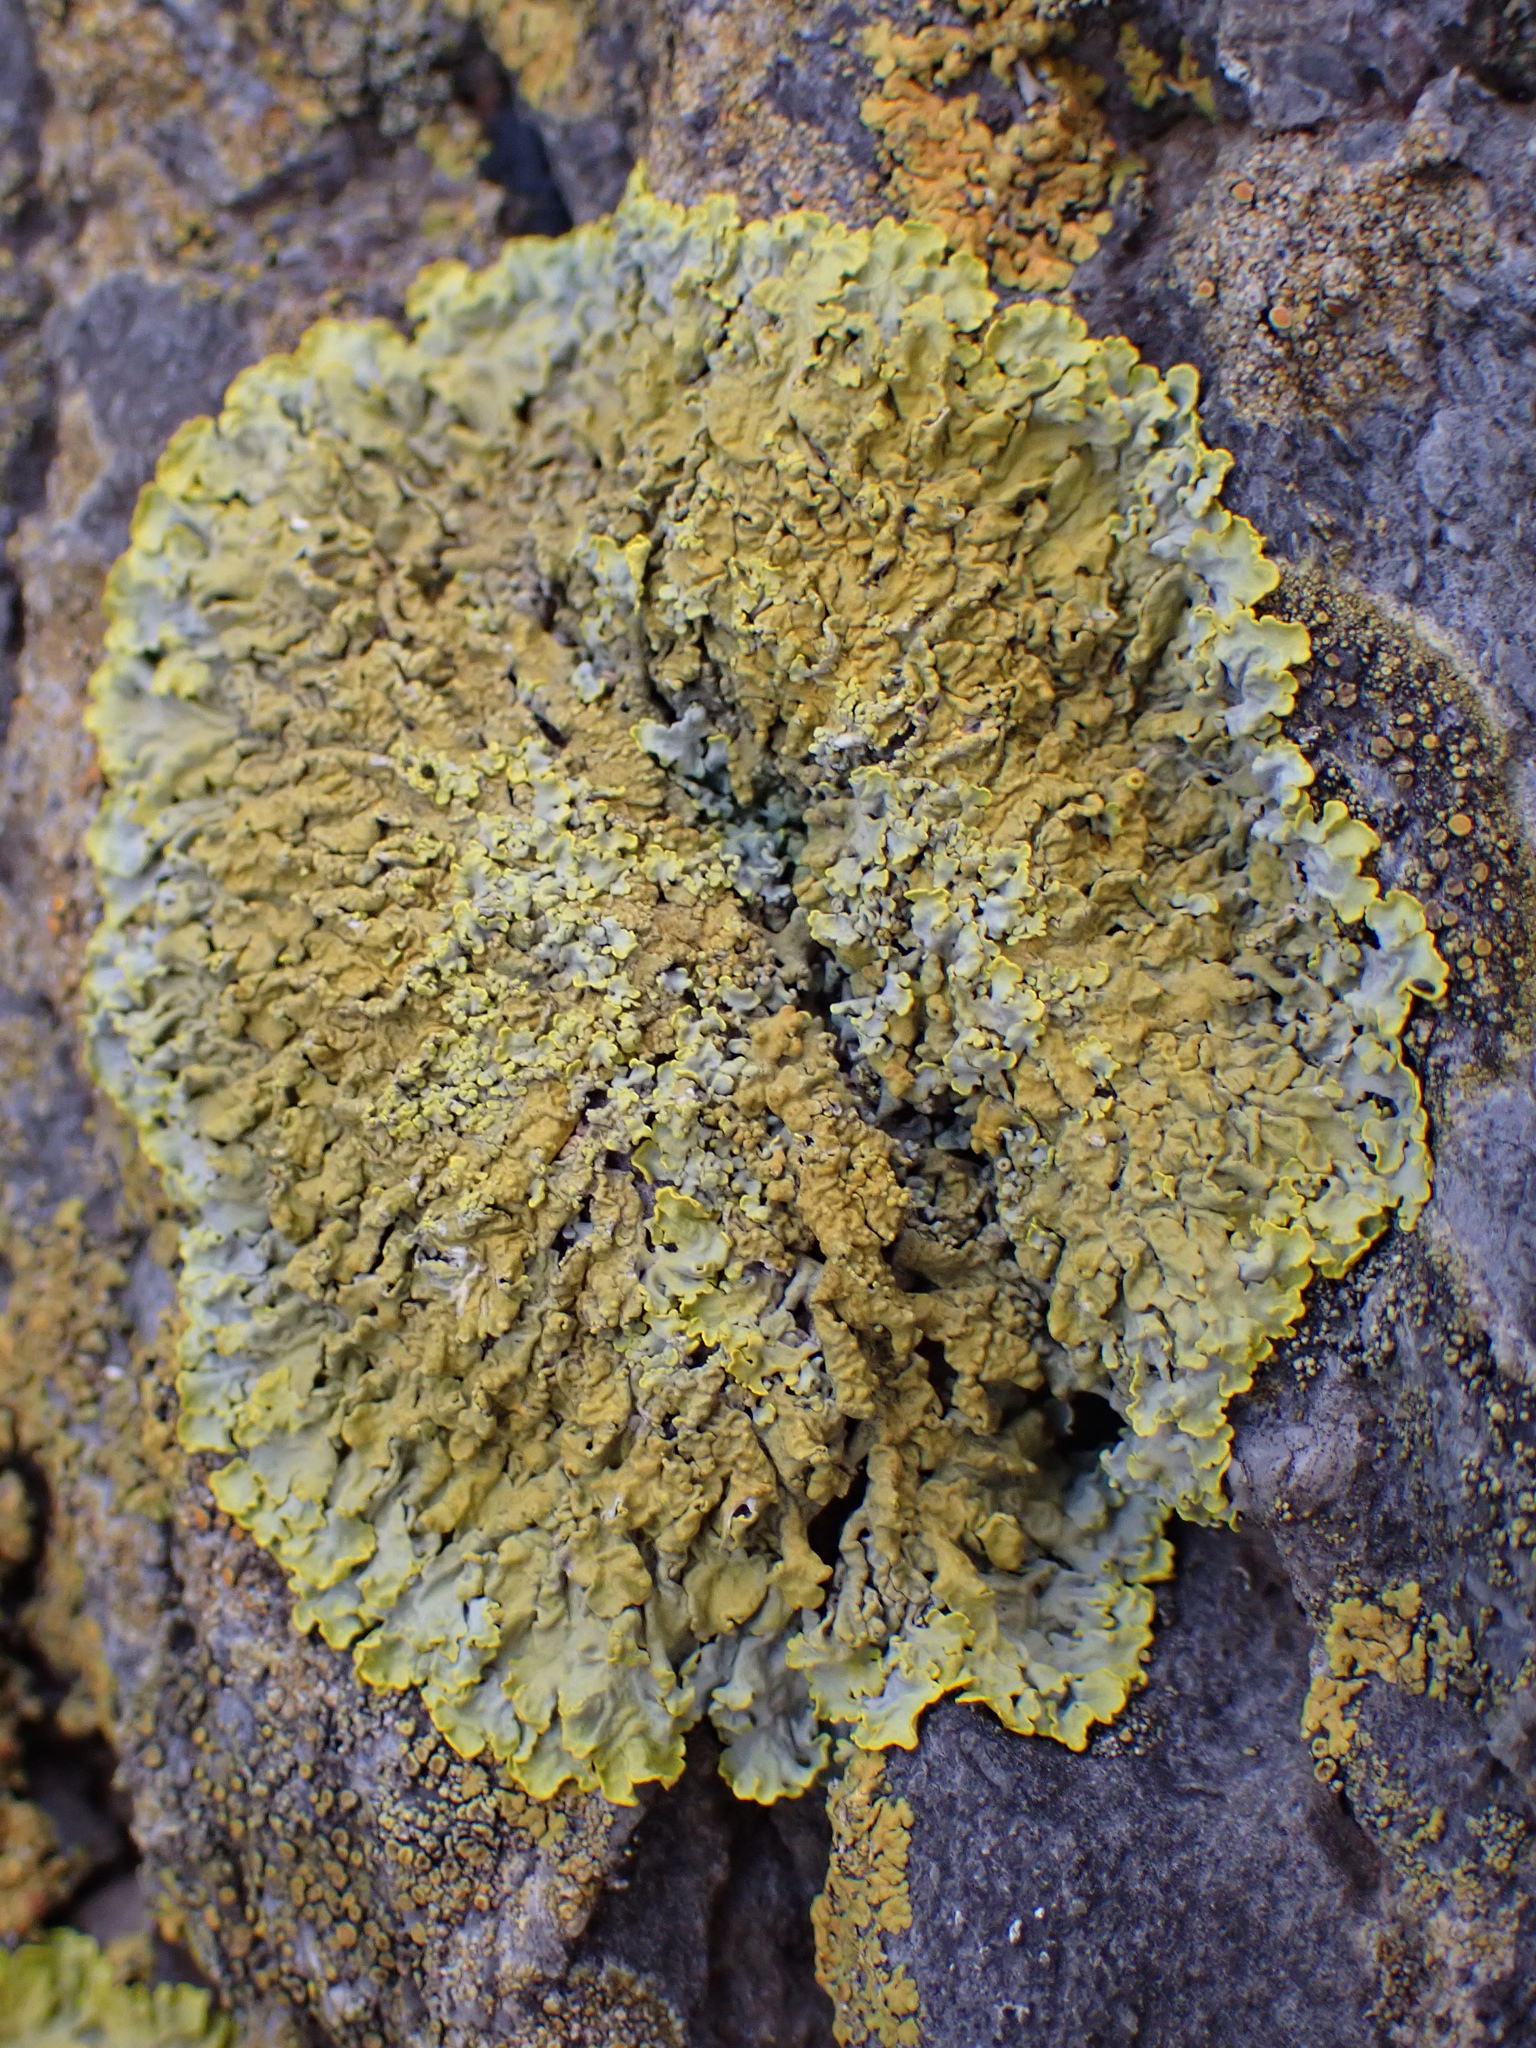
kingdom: Fungi
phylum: Ascomycota
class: Lecanoromycetes
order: Teloschistales
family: Teloschistaceae
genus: Xanthoria
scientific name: Xanthoria parietina
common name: Common orange lichen
